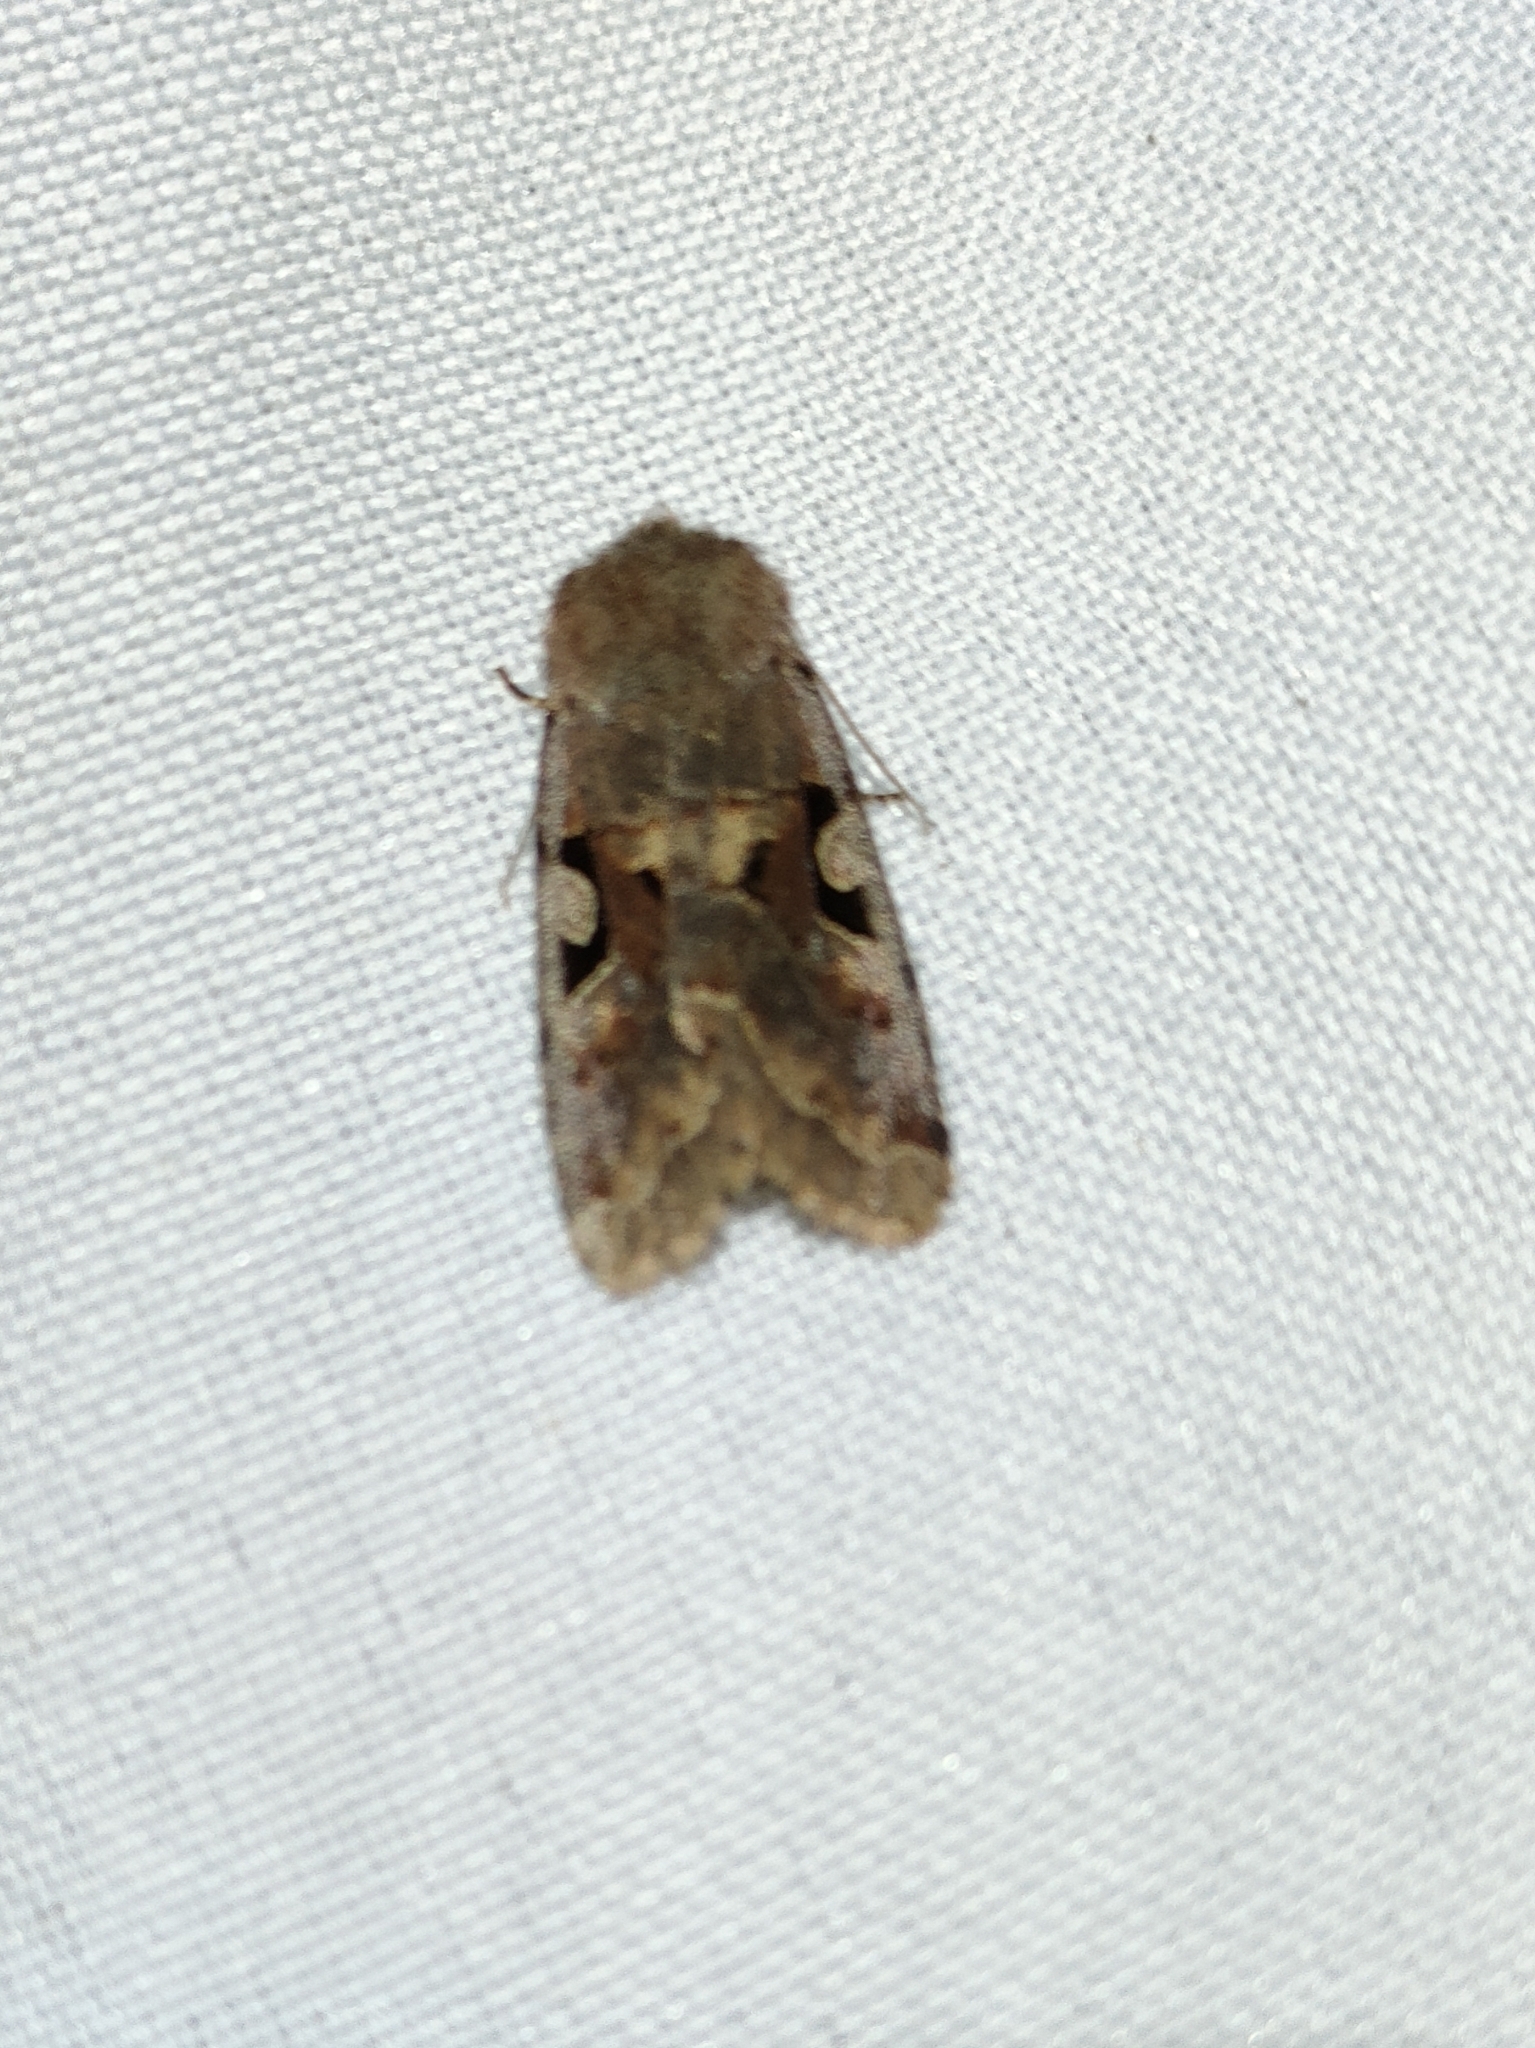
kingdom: Animalia
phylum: Arthropoda
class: Insecta
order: Lepidoptera
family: Noctuidae
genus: Orthosia
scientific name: Orthosia gothica
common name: Hebrew character
